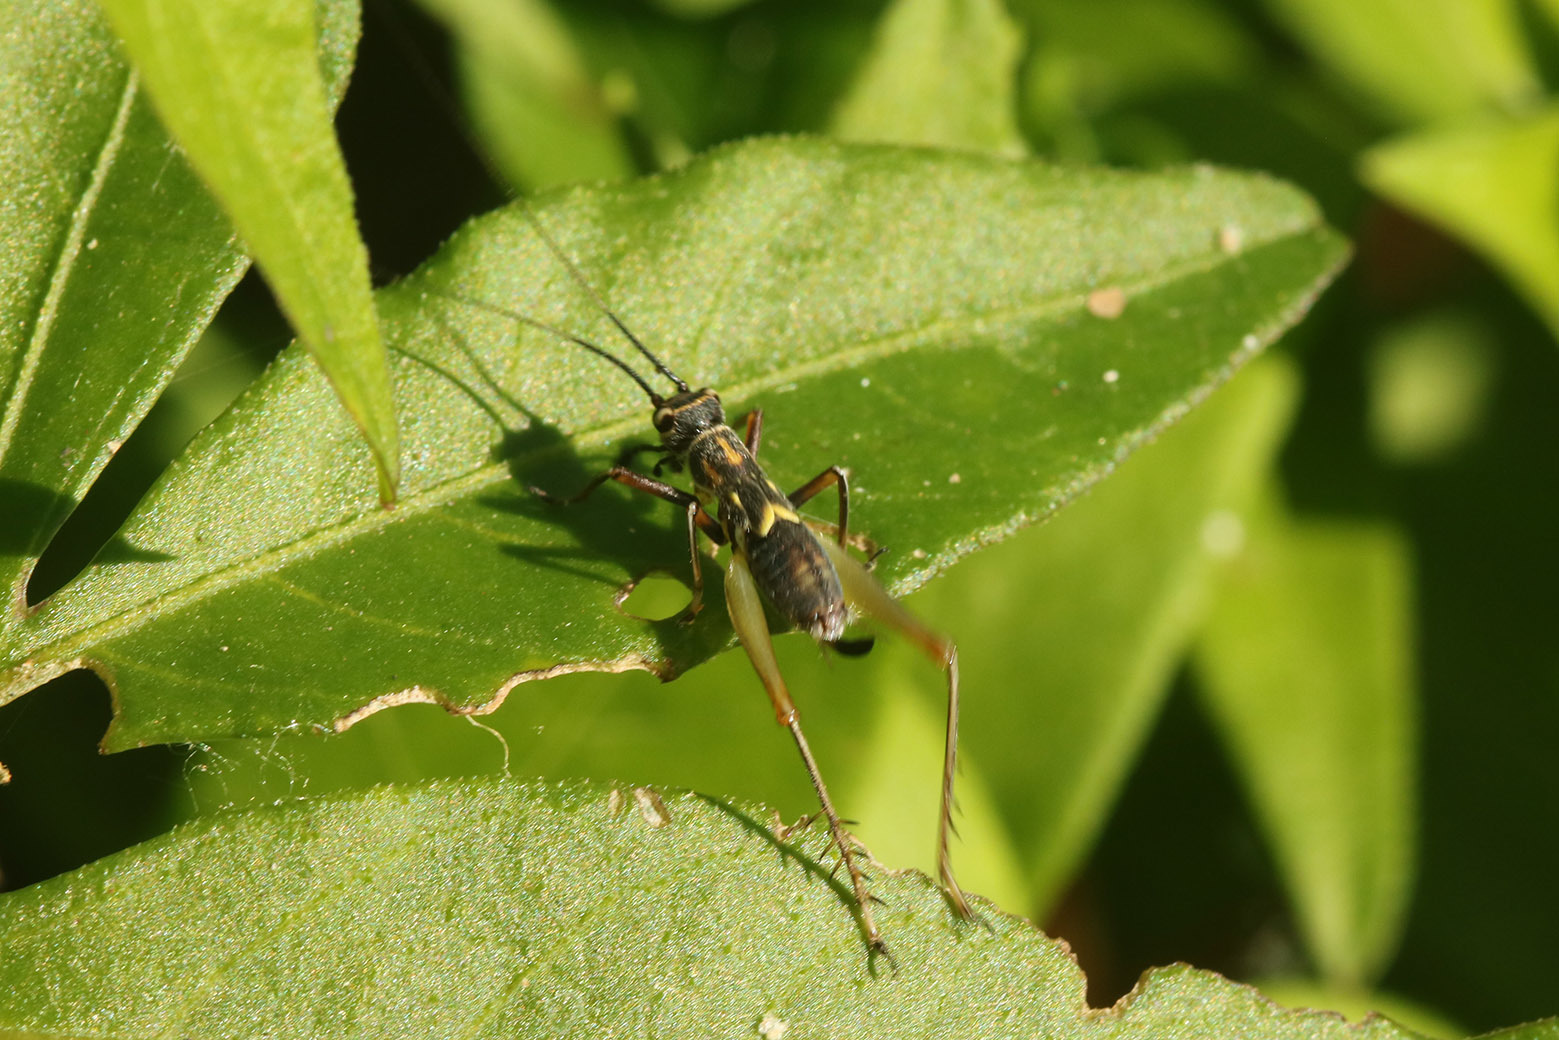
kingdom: Animalia
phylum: Arthropoda
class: Insecta
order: Orthoptera
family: Trigonidiidae
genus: Phylloscyrtus
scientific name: Phylloscyrtus amoenus
